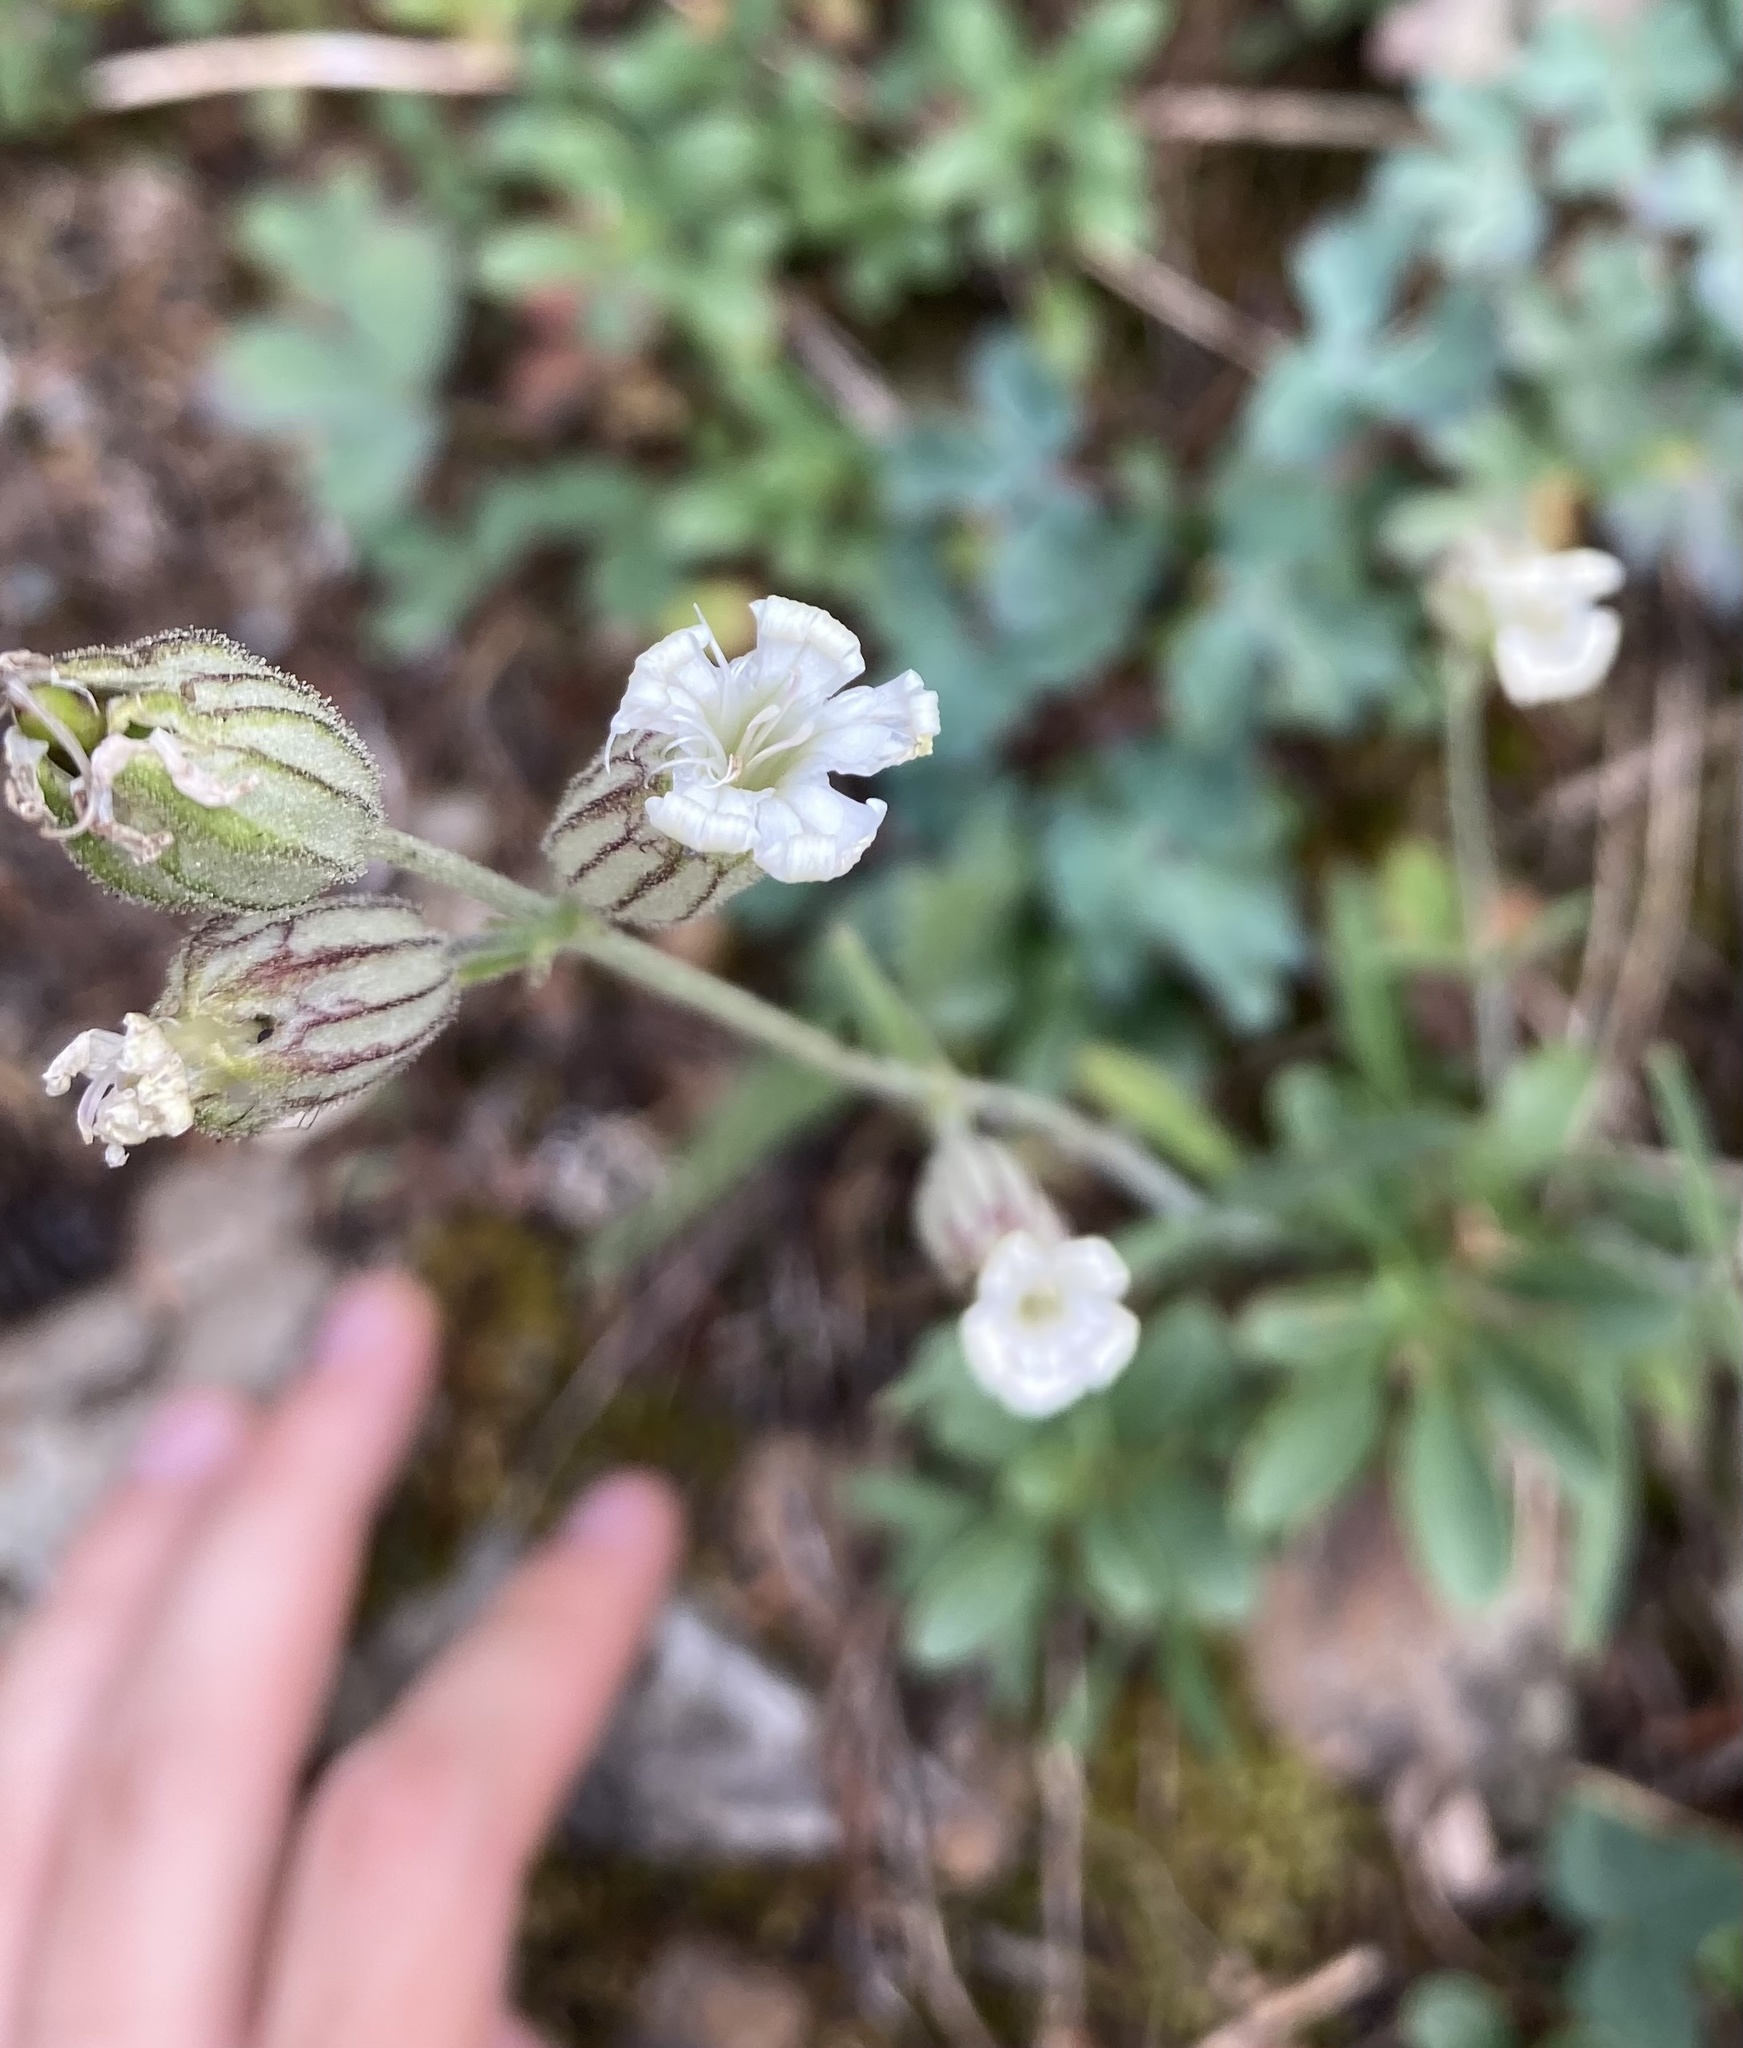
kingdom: Plantae
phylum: Tracheophyta
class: Magnoliopsida
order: Caryophyllales
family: Caryophyllaceae
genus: Silene
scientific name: Silene parryi
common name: Parry's campion
